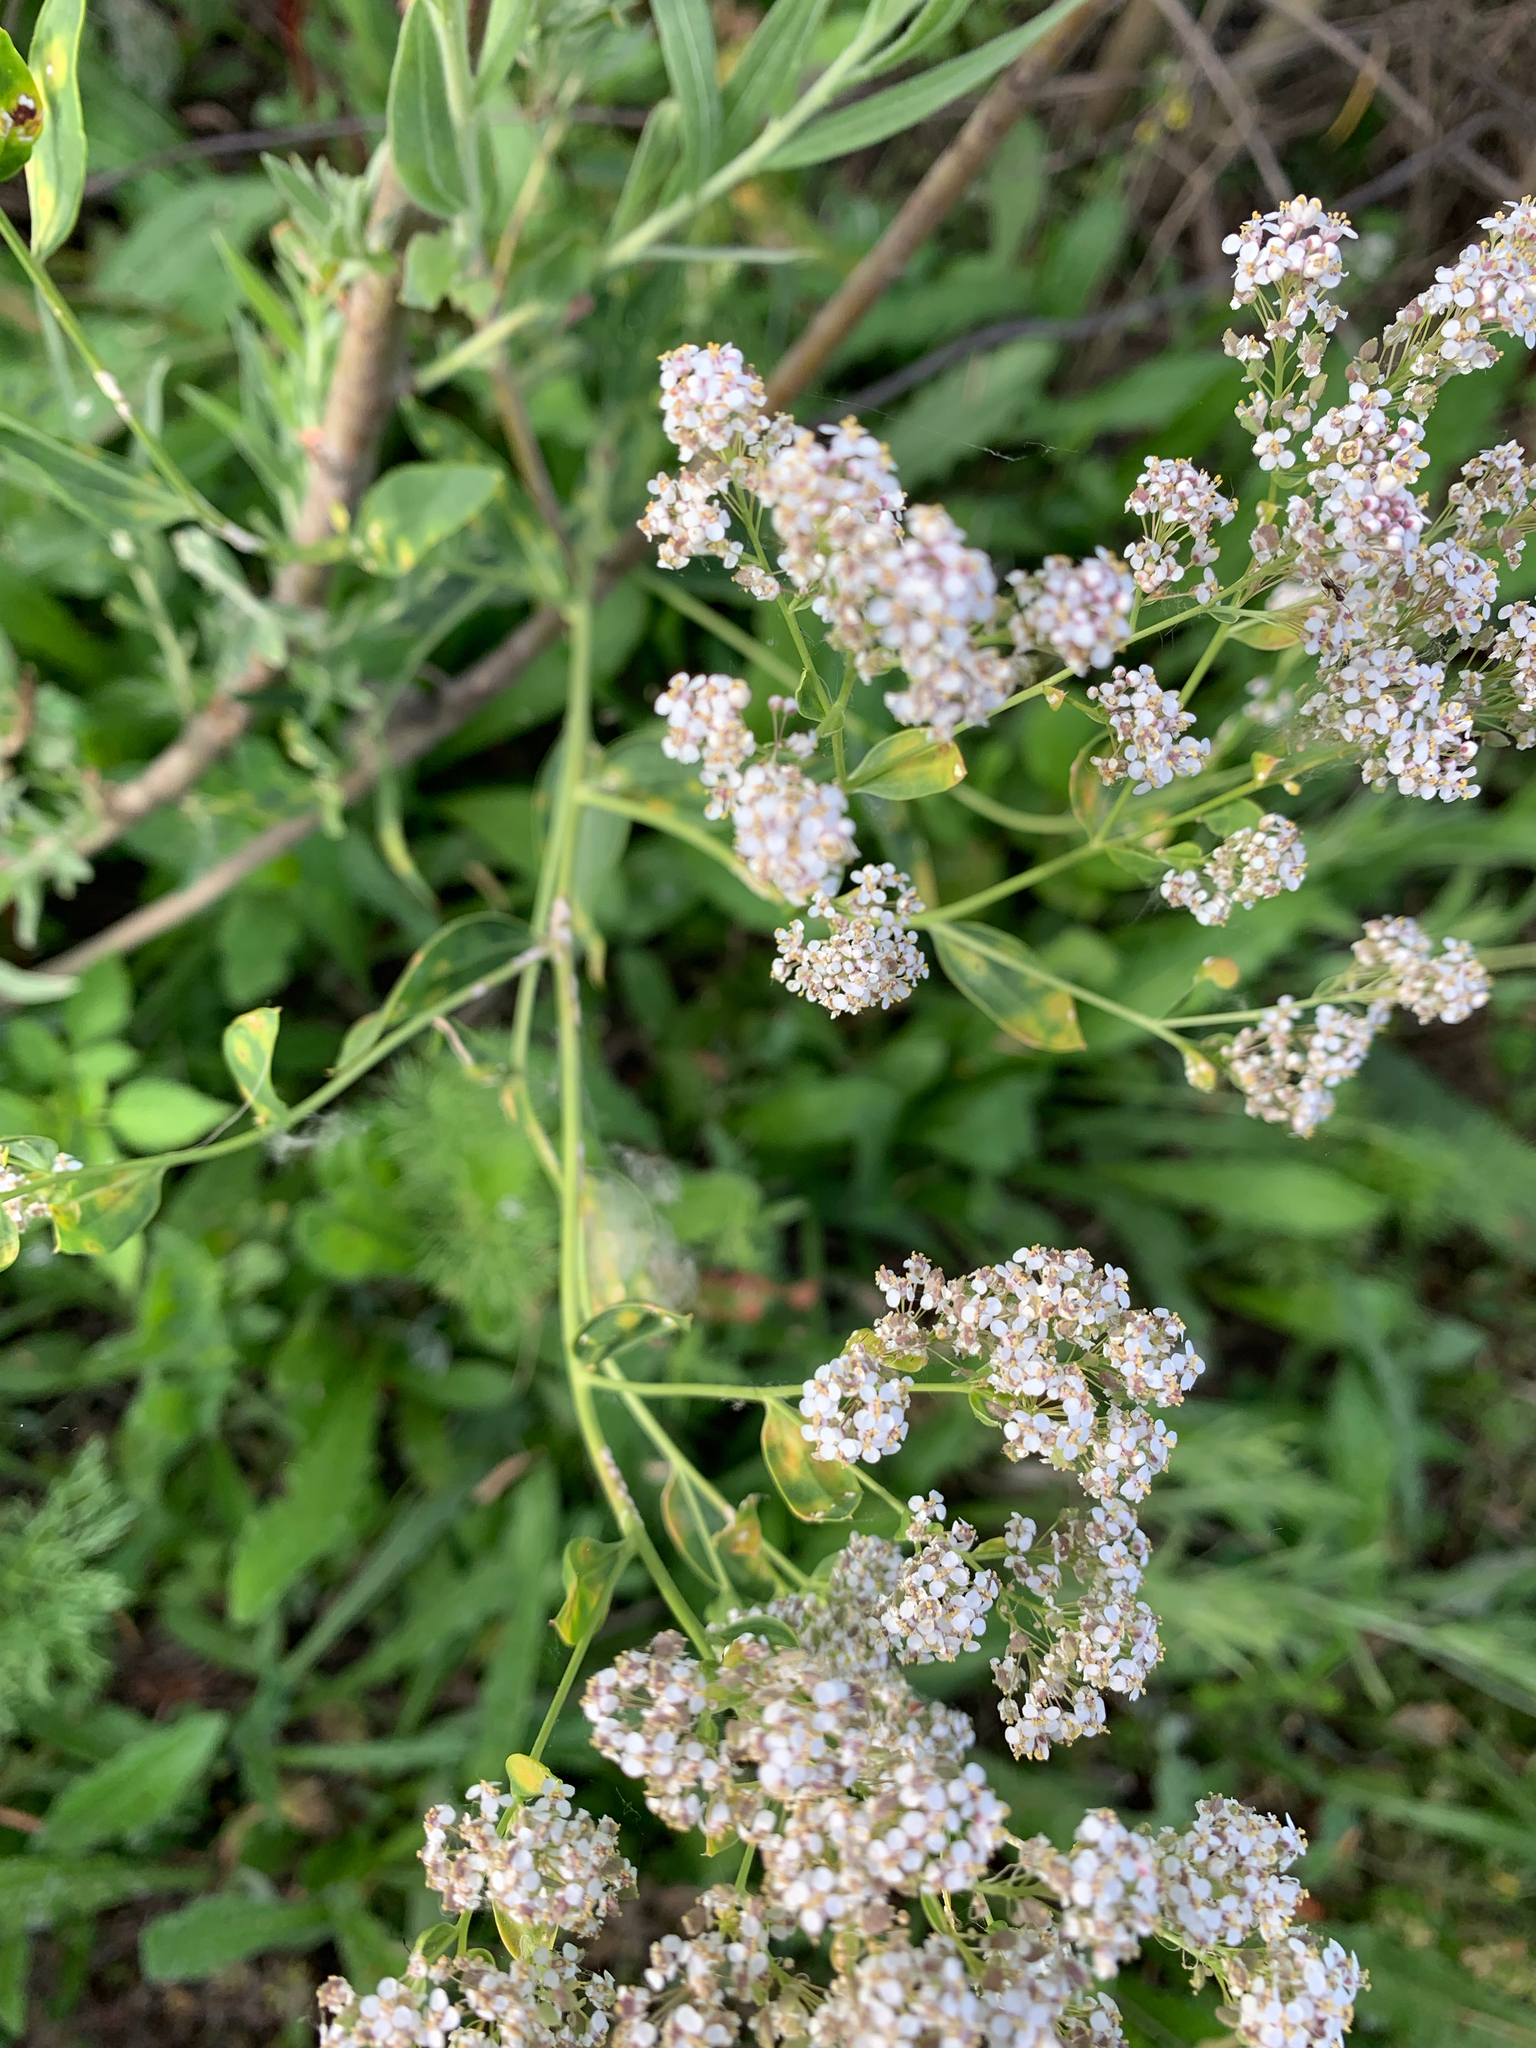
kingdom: Plantae
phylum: Tracheophyta
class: Magnoliopsida
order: Brassicales
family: Brassicaceae
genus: Lepidium
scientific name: Lepidium latifolium
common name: Dittander
